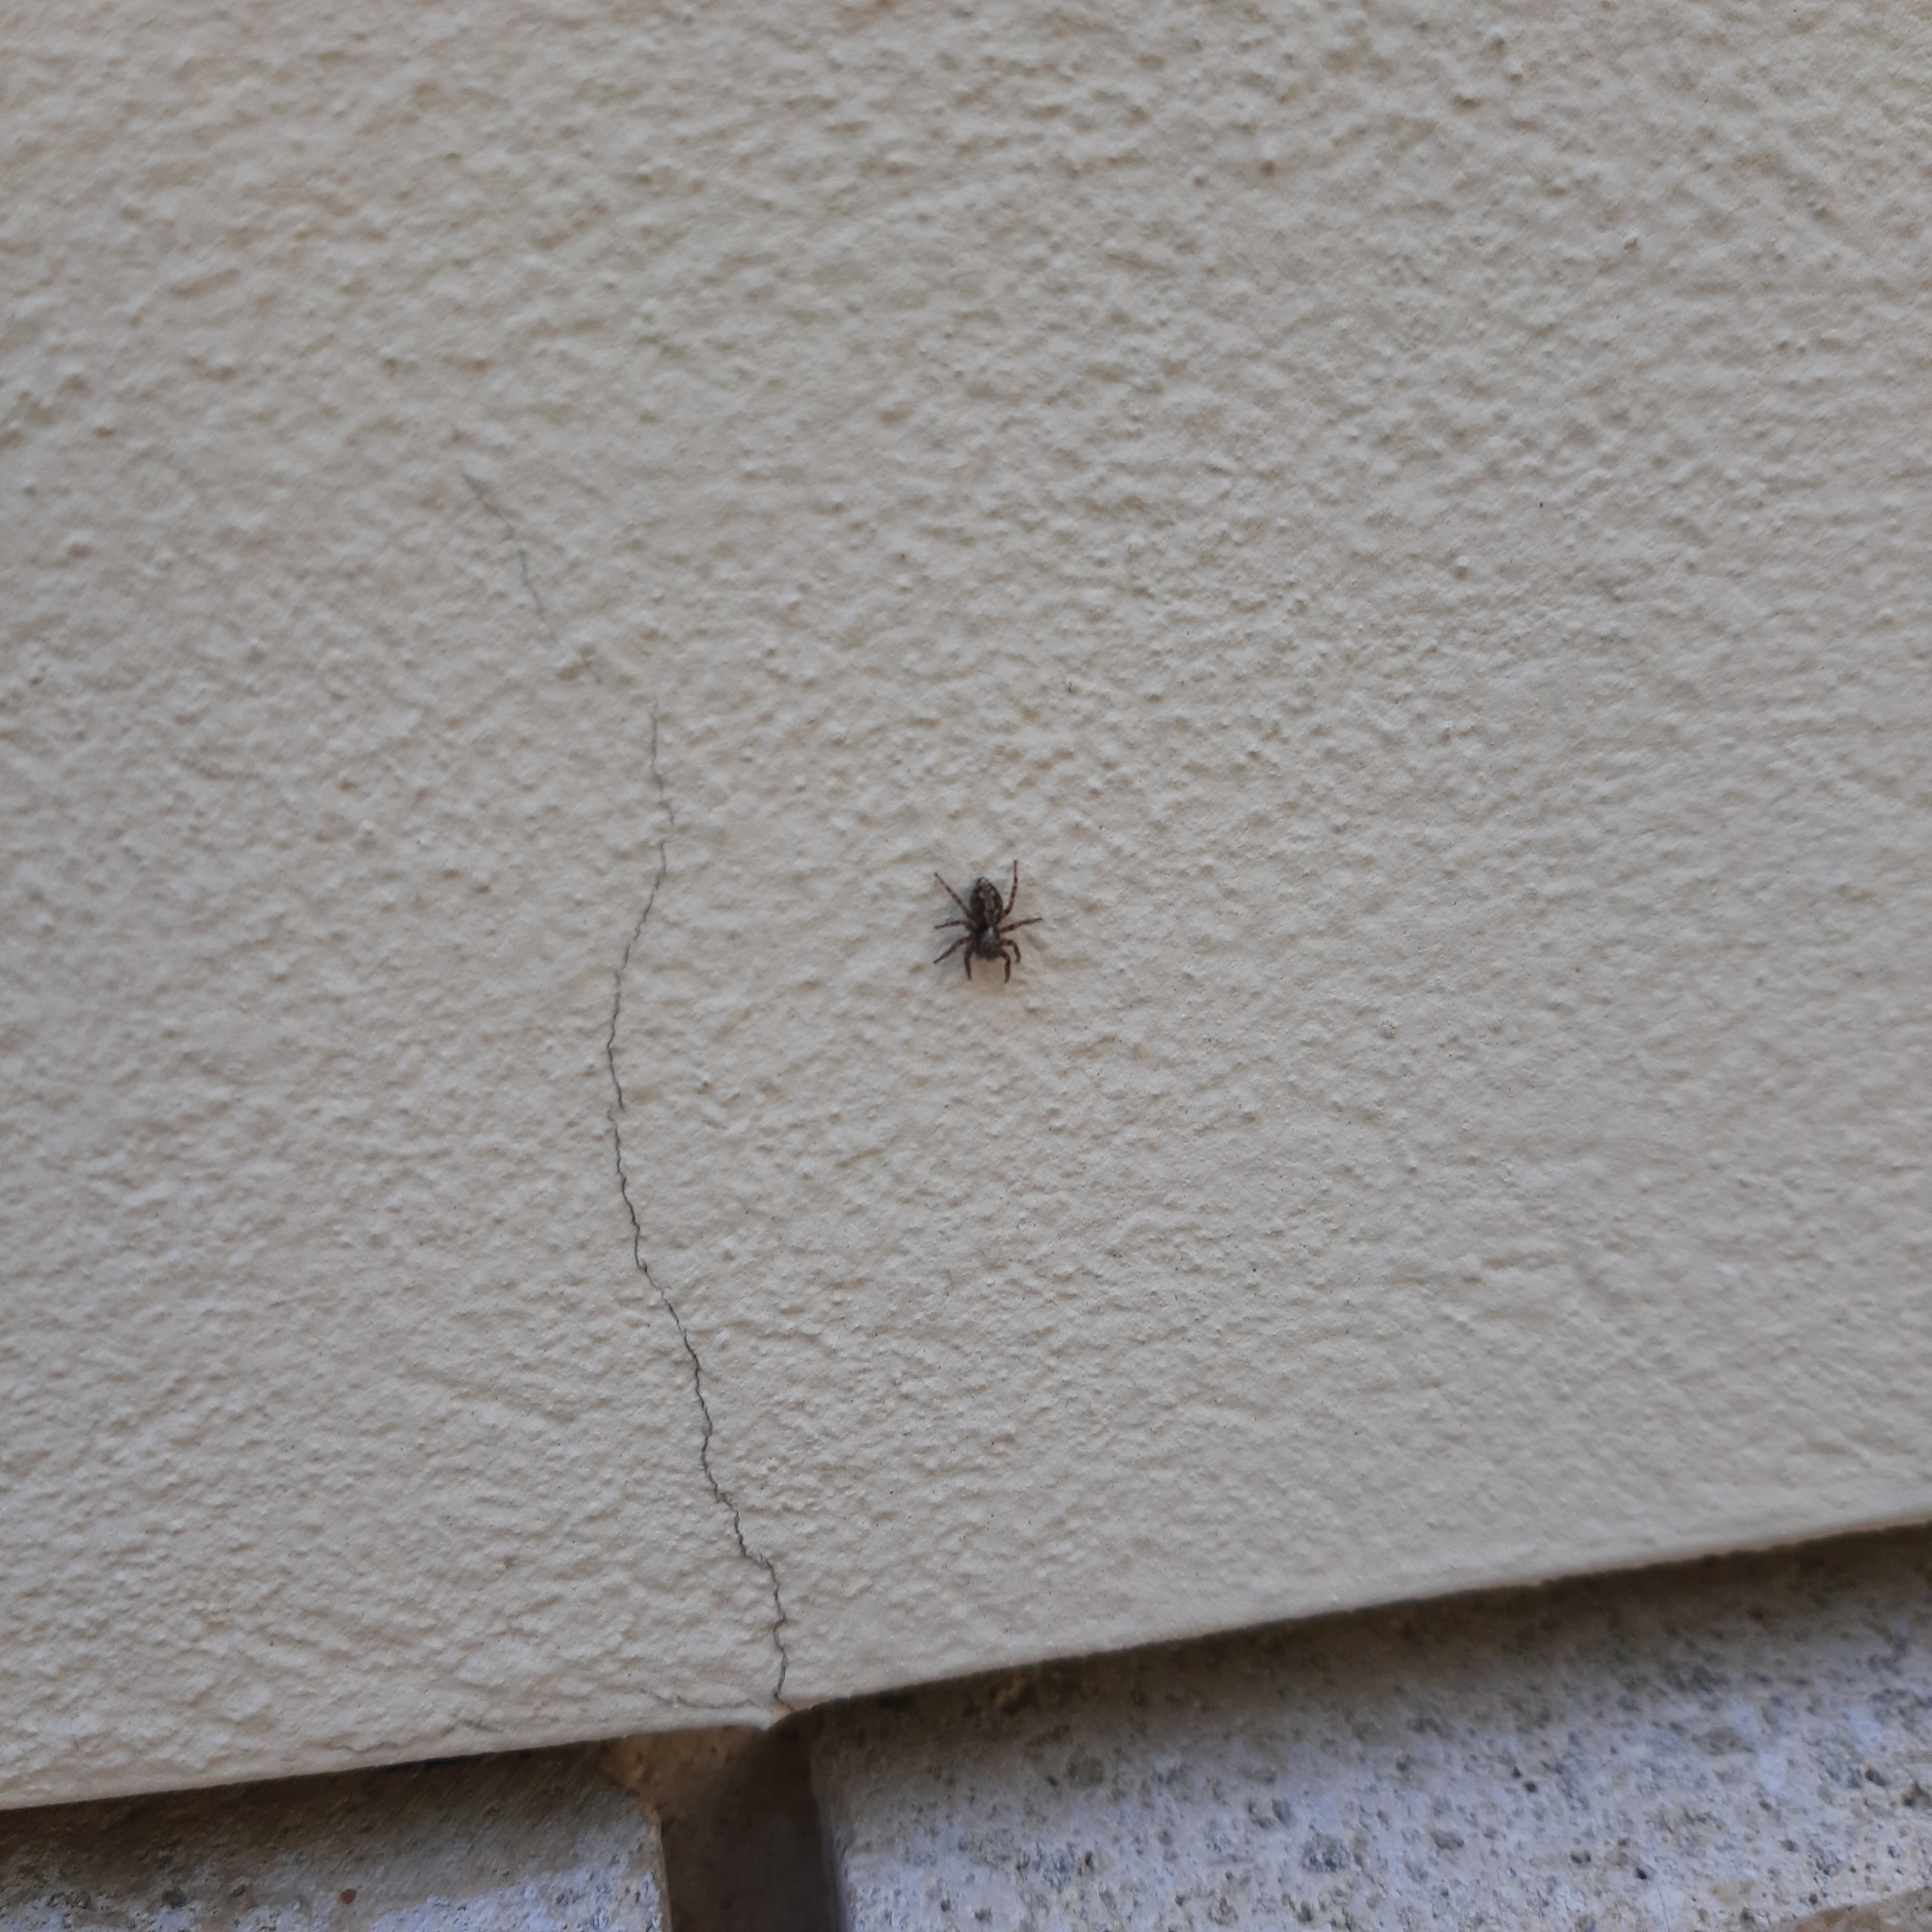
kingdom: Animalia
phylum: Arthropoda
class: Arachnida
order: Araneae
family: Salticidae
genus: Pseudeuophrys
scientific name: Pseudeuophrys lanigera
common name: Jumping spider
